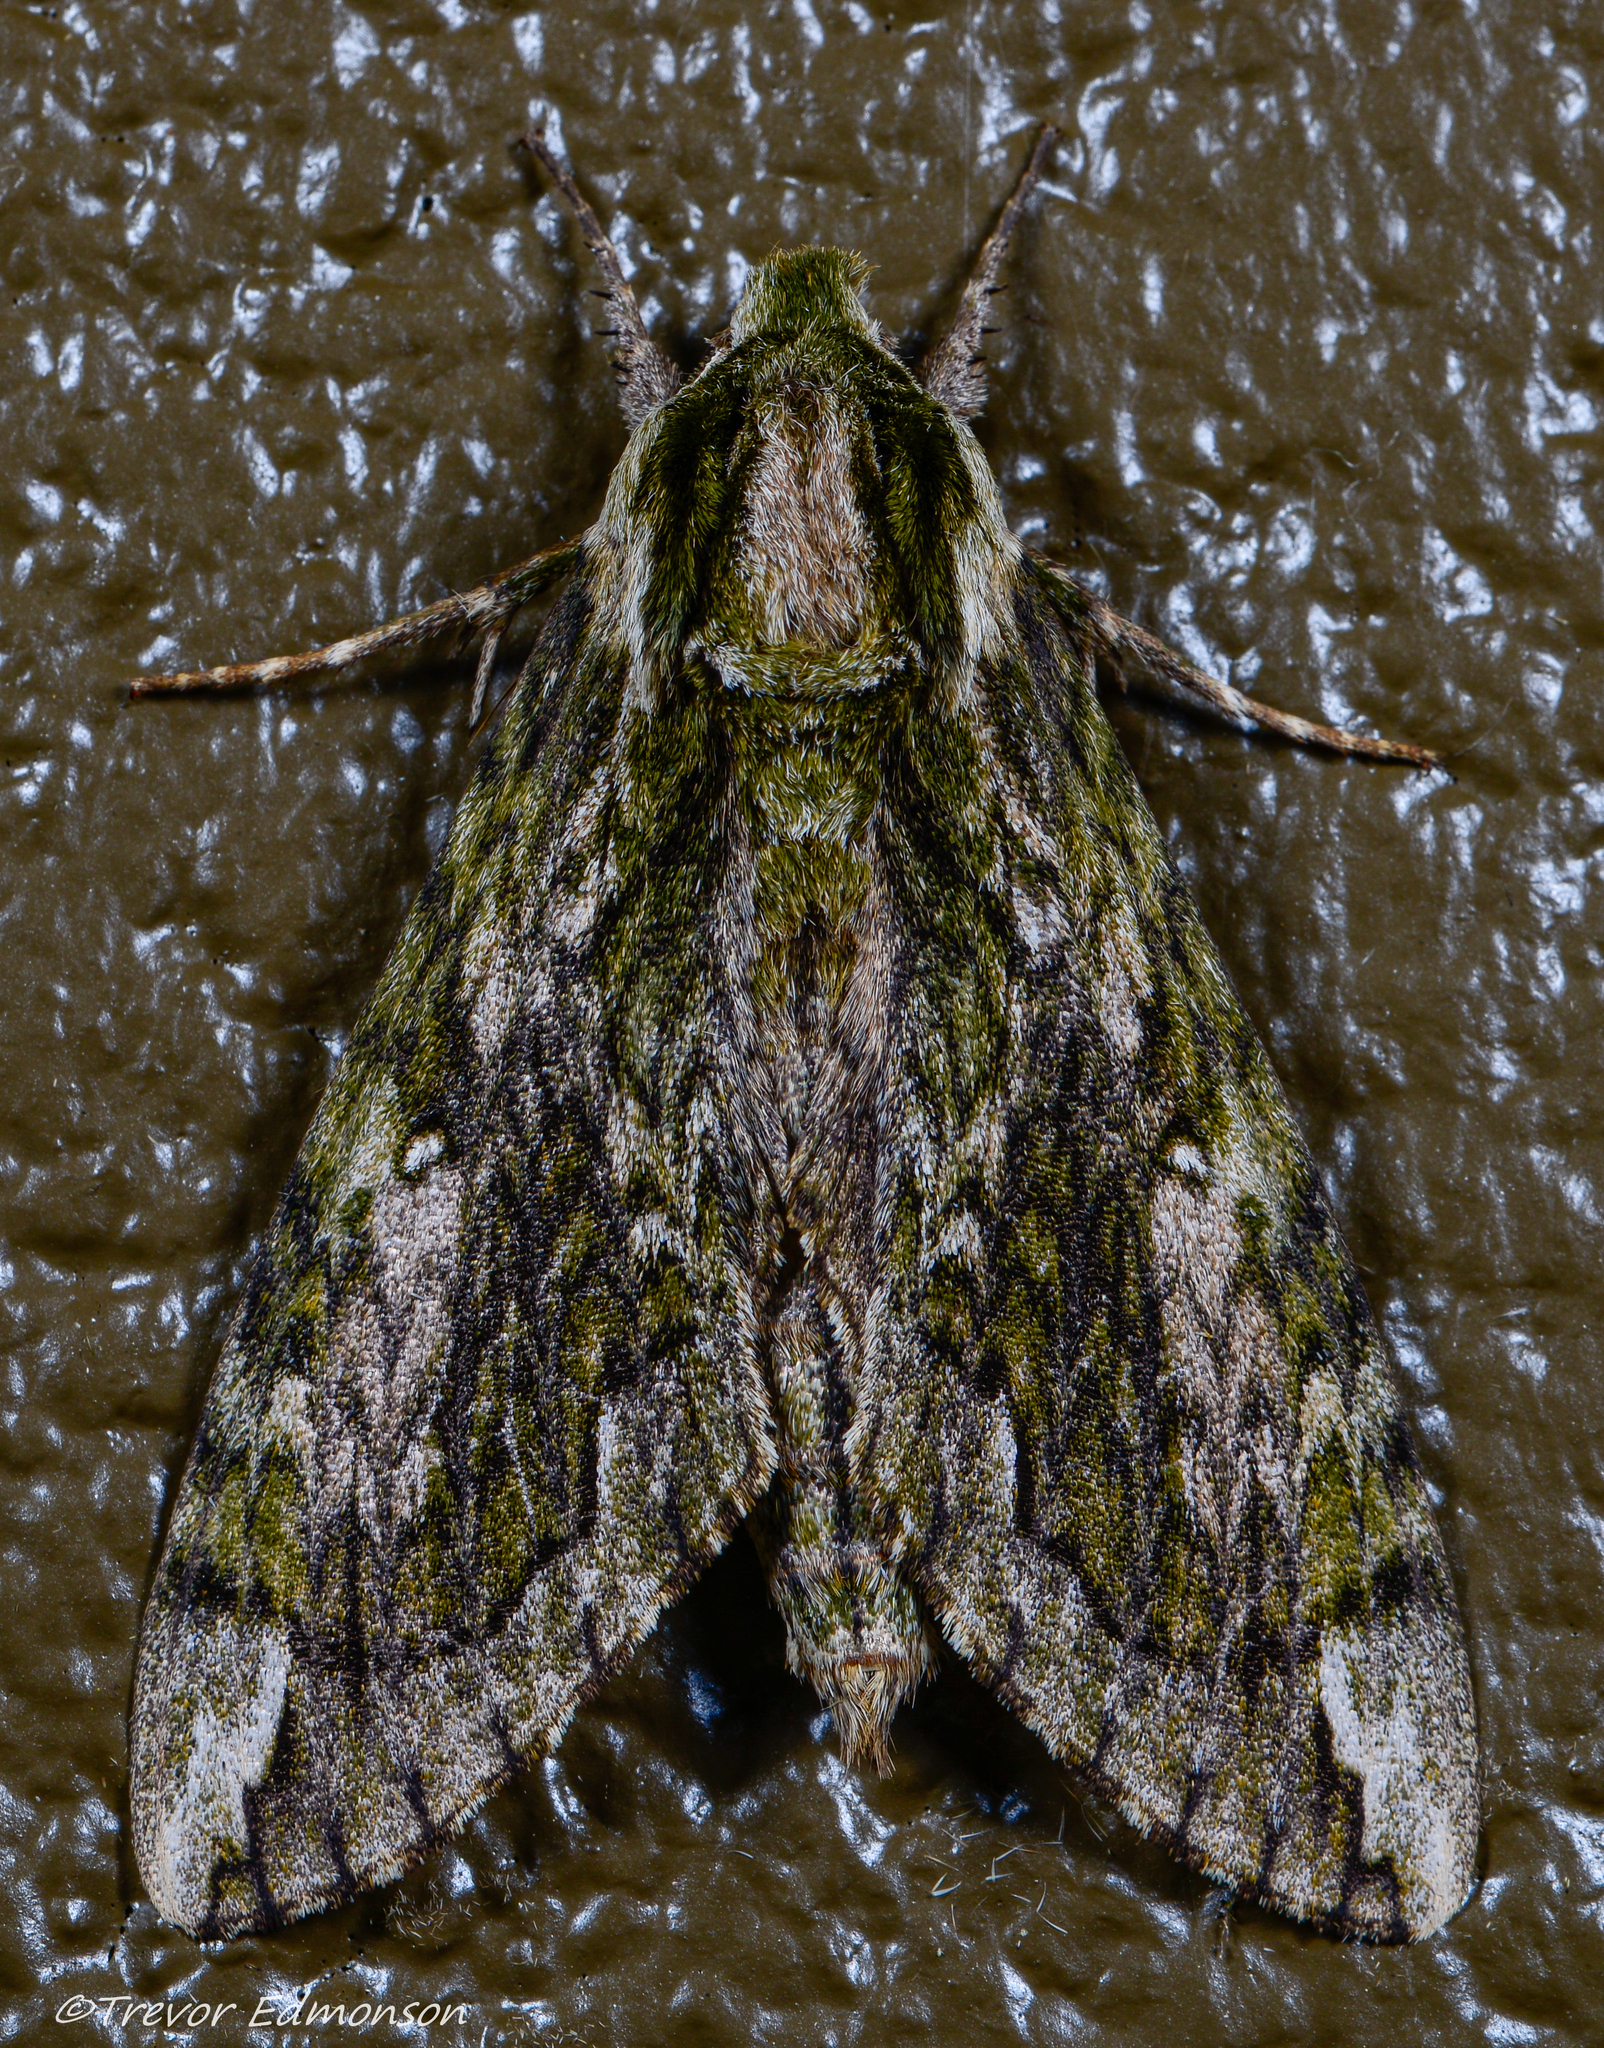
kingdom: Animalia
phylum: Arthropoda
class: Insecta
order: Lepidoptera
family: Sphingidae
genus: Ceratomia
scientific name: Ceratomia hageni
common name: Hagen's sphinx
